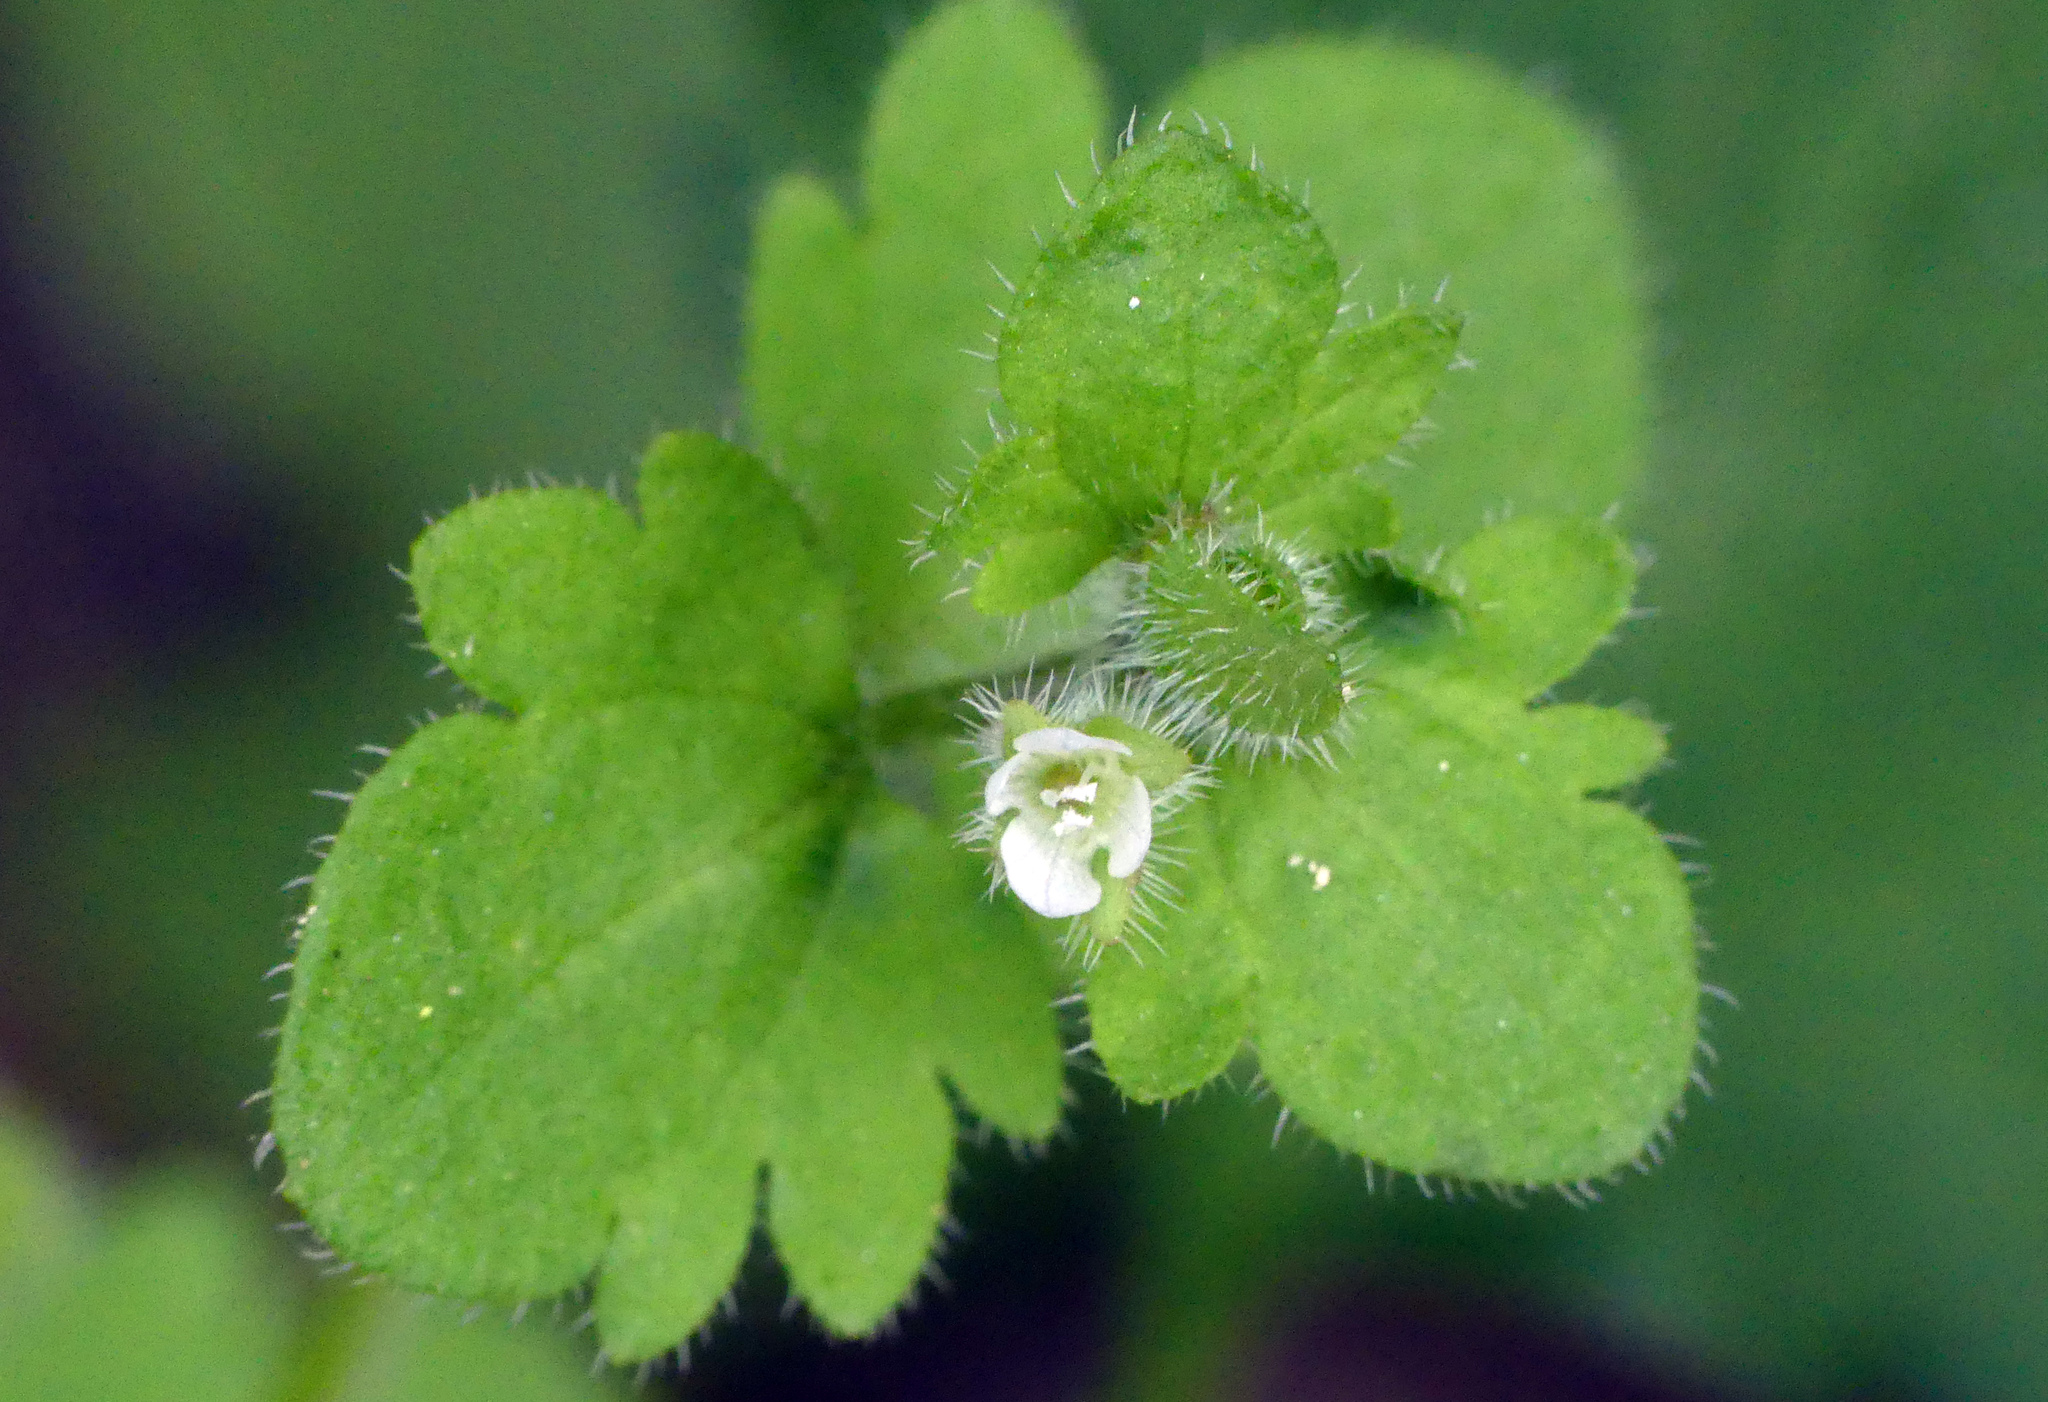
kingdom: Plantae
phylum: Tracheophyta
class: Magnoliopsida
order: Lamiales
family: Plantaginaceae
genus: Veronica
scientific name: Veronica sublobata
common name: False ivy-leaved speedwell
